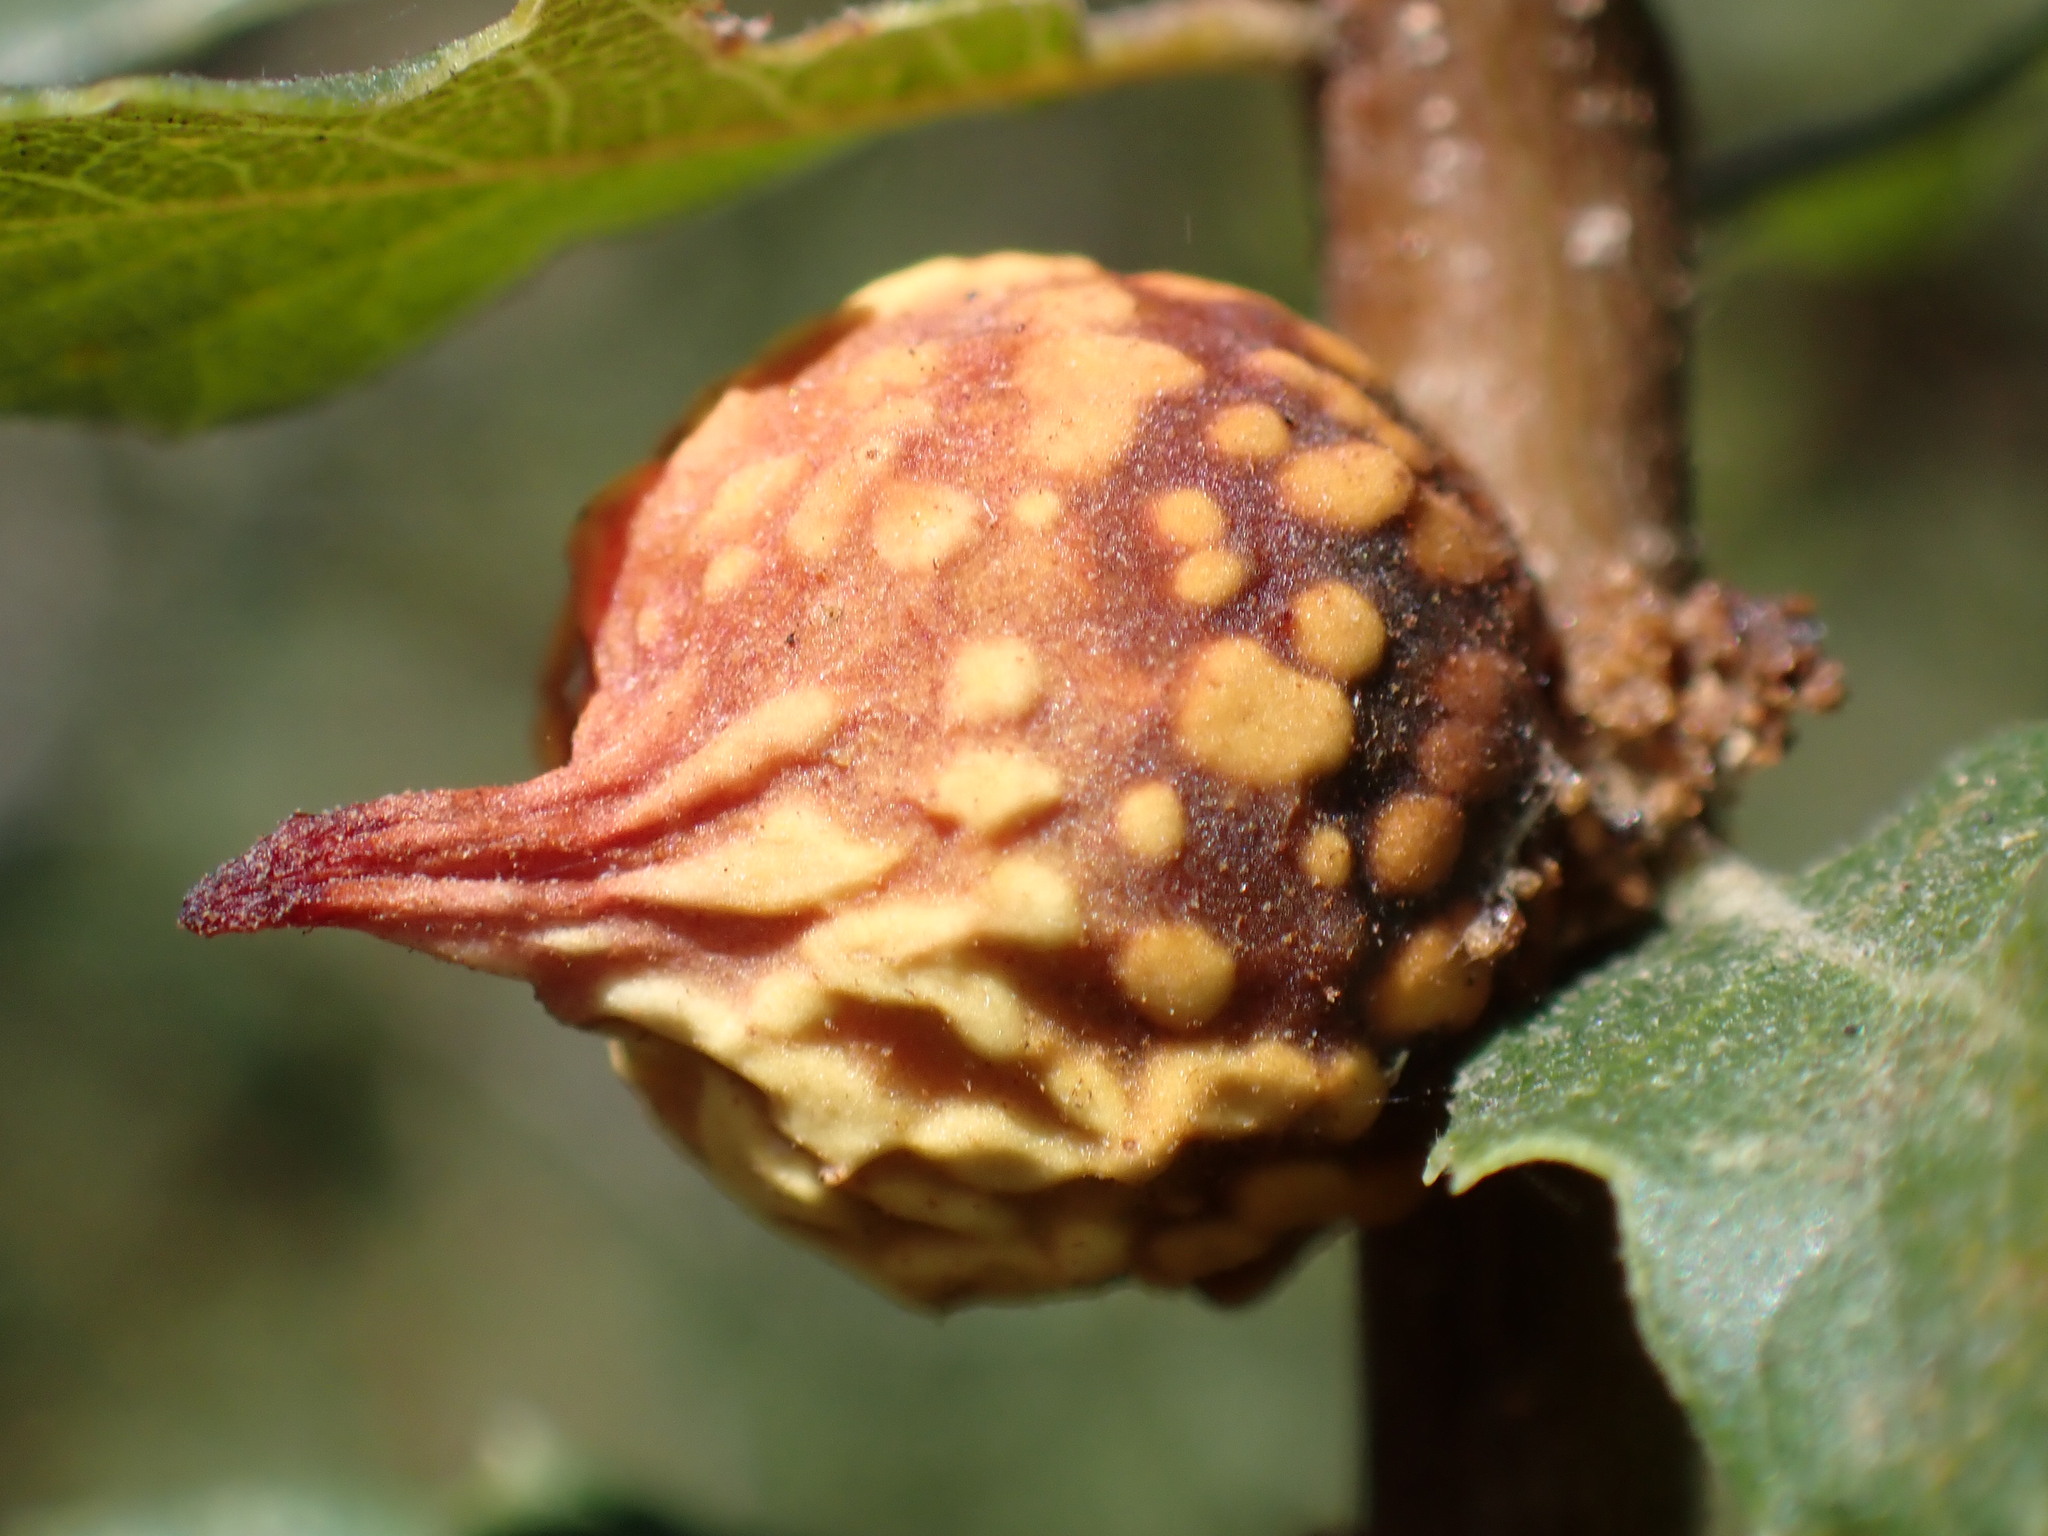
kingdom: Animalia
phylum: Arthropoda
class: Insecta
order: Hymenoptera
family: Cynipidae
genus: Burnettweldia
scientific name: Burnettweldia
